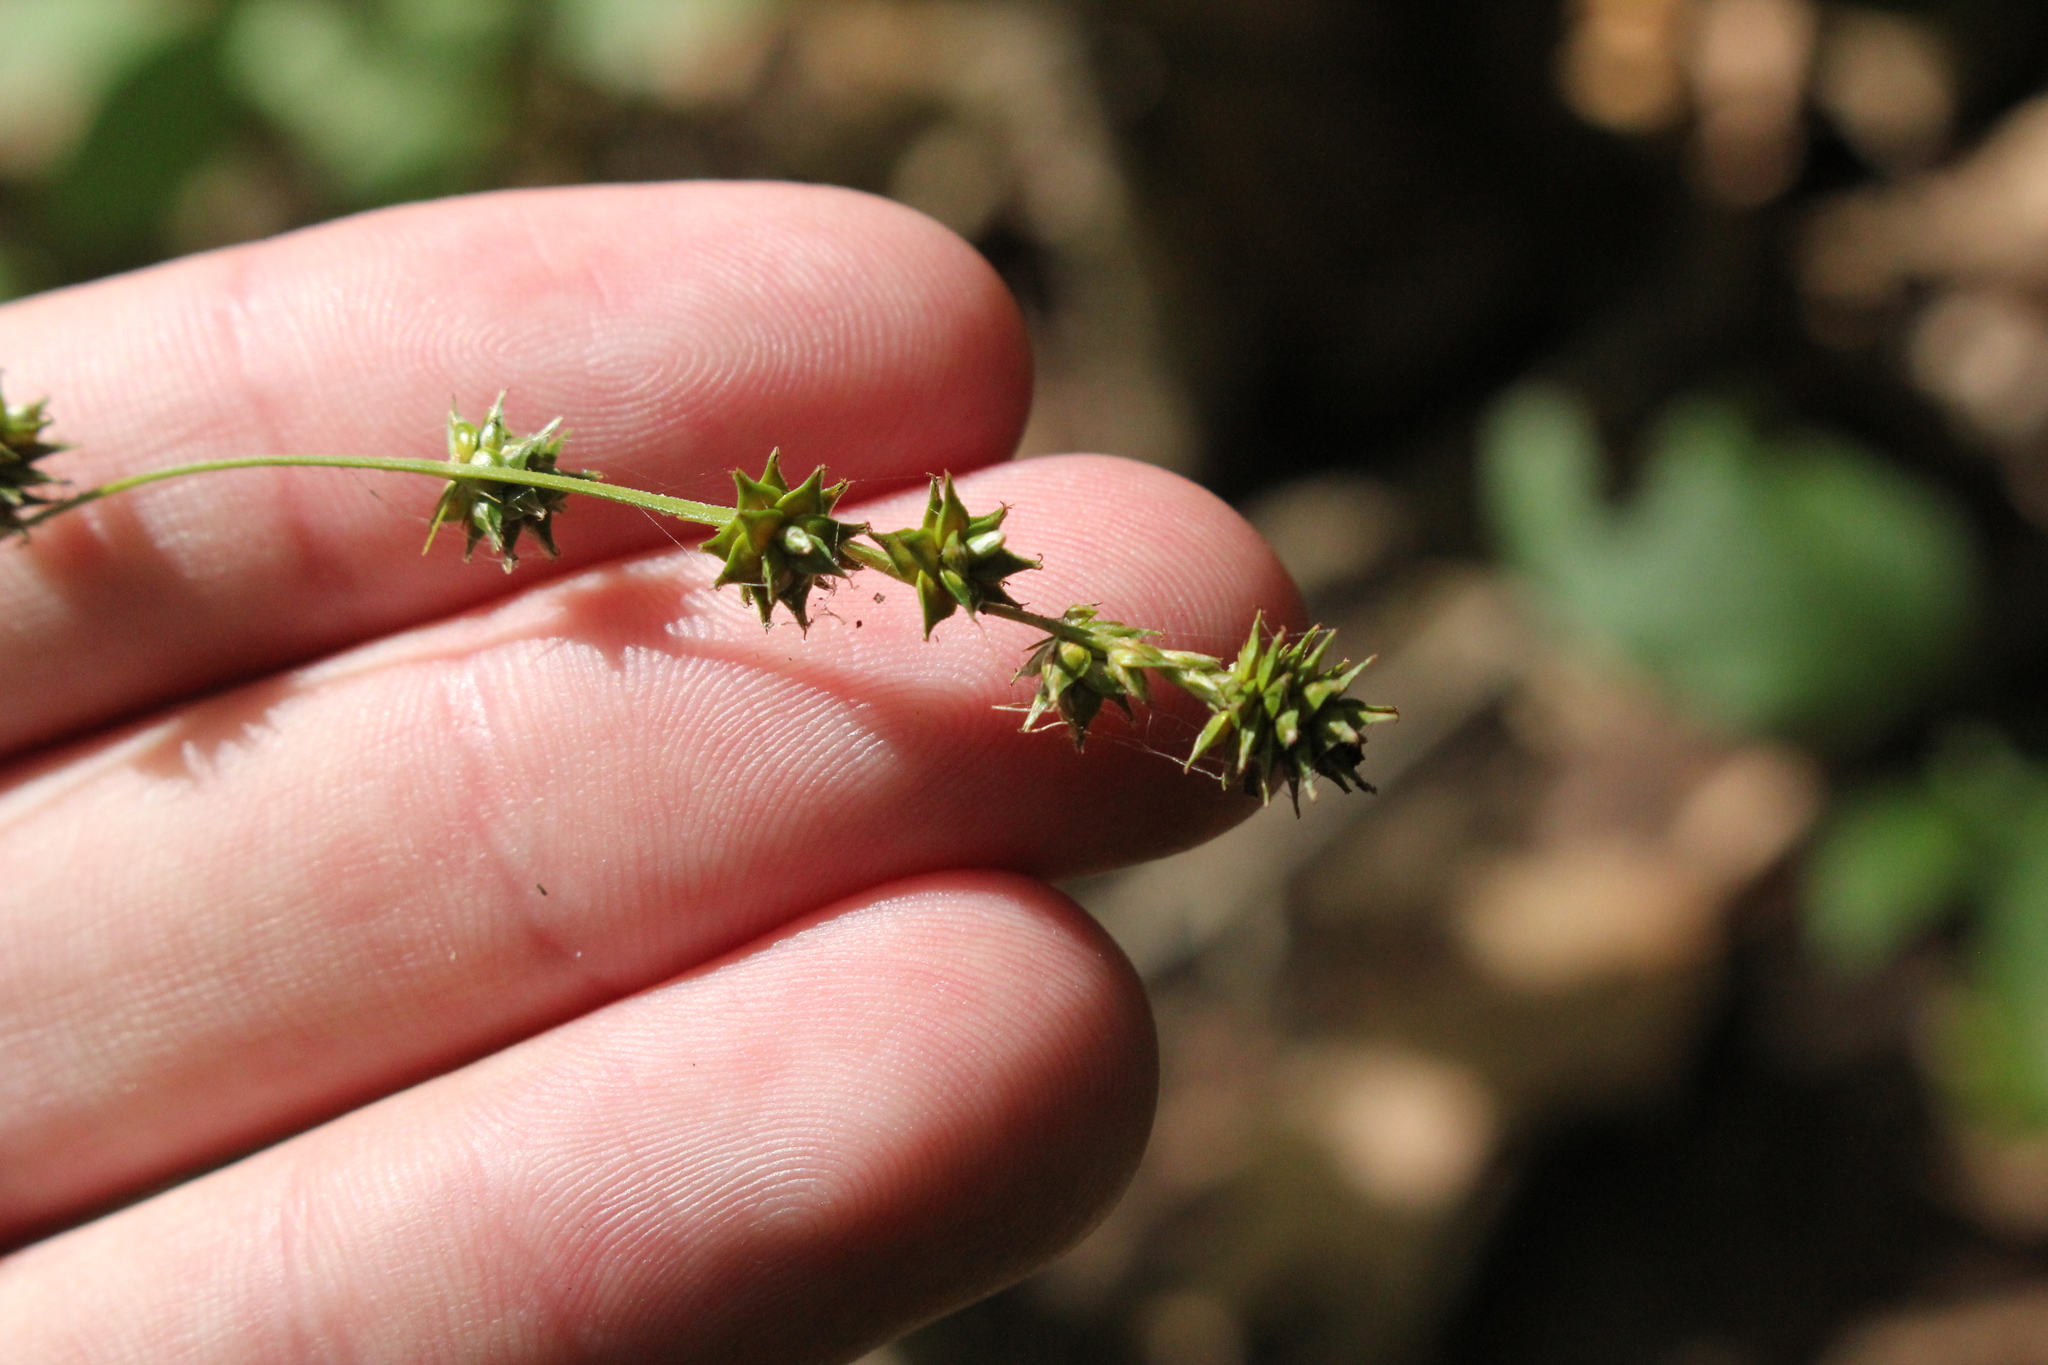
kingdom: Plantae
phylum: Tracheophyta
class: Liliopsida
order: Poales
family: Cyperaceae
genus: Carex
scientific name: Carex sparganioides
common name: Burreed sedge
